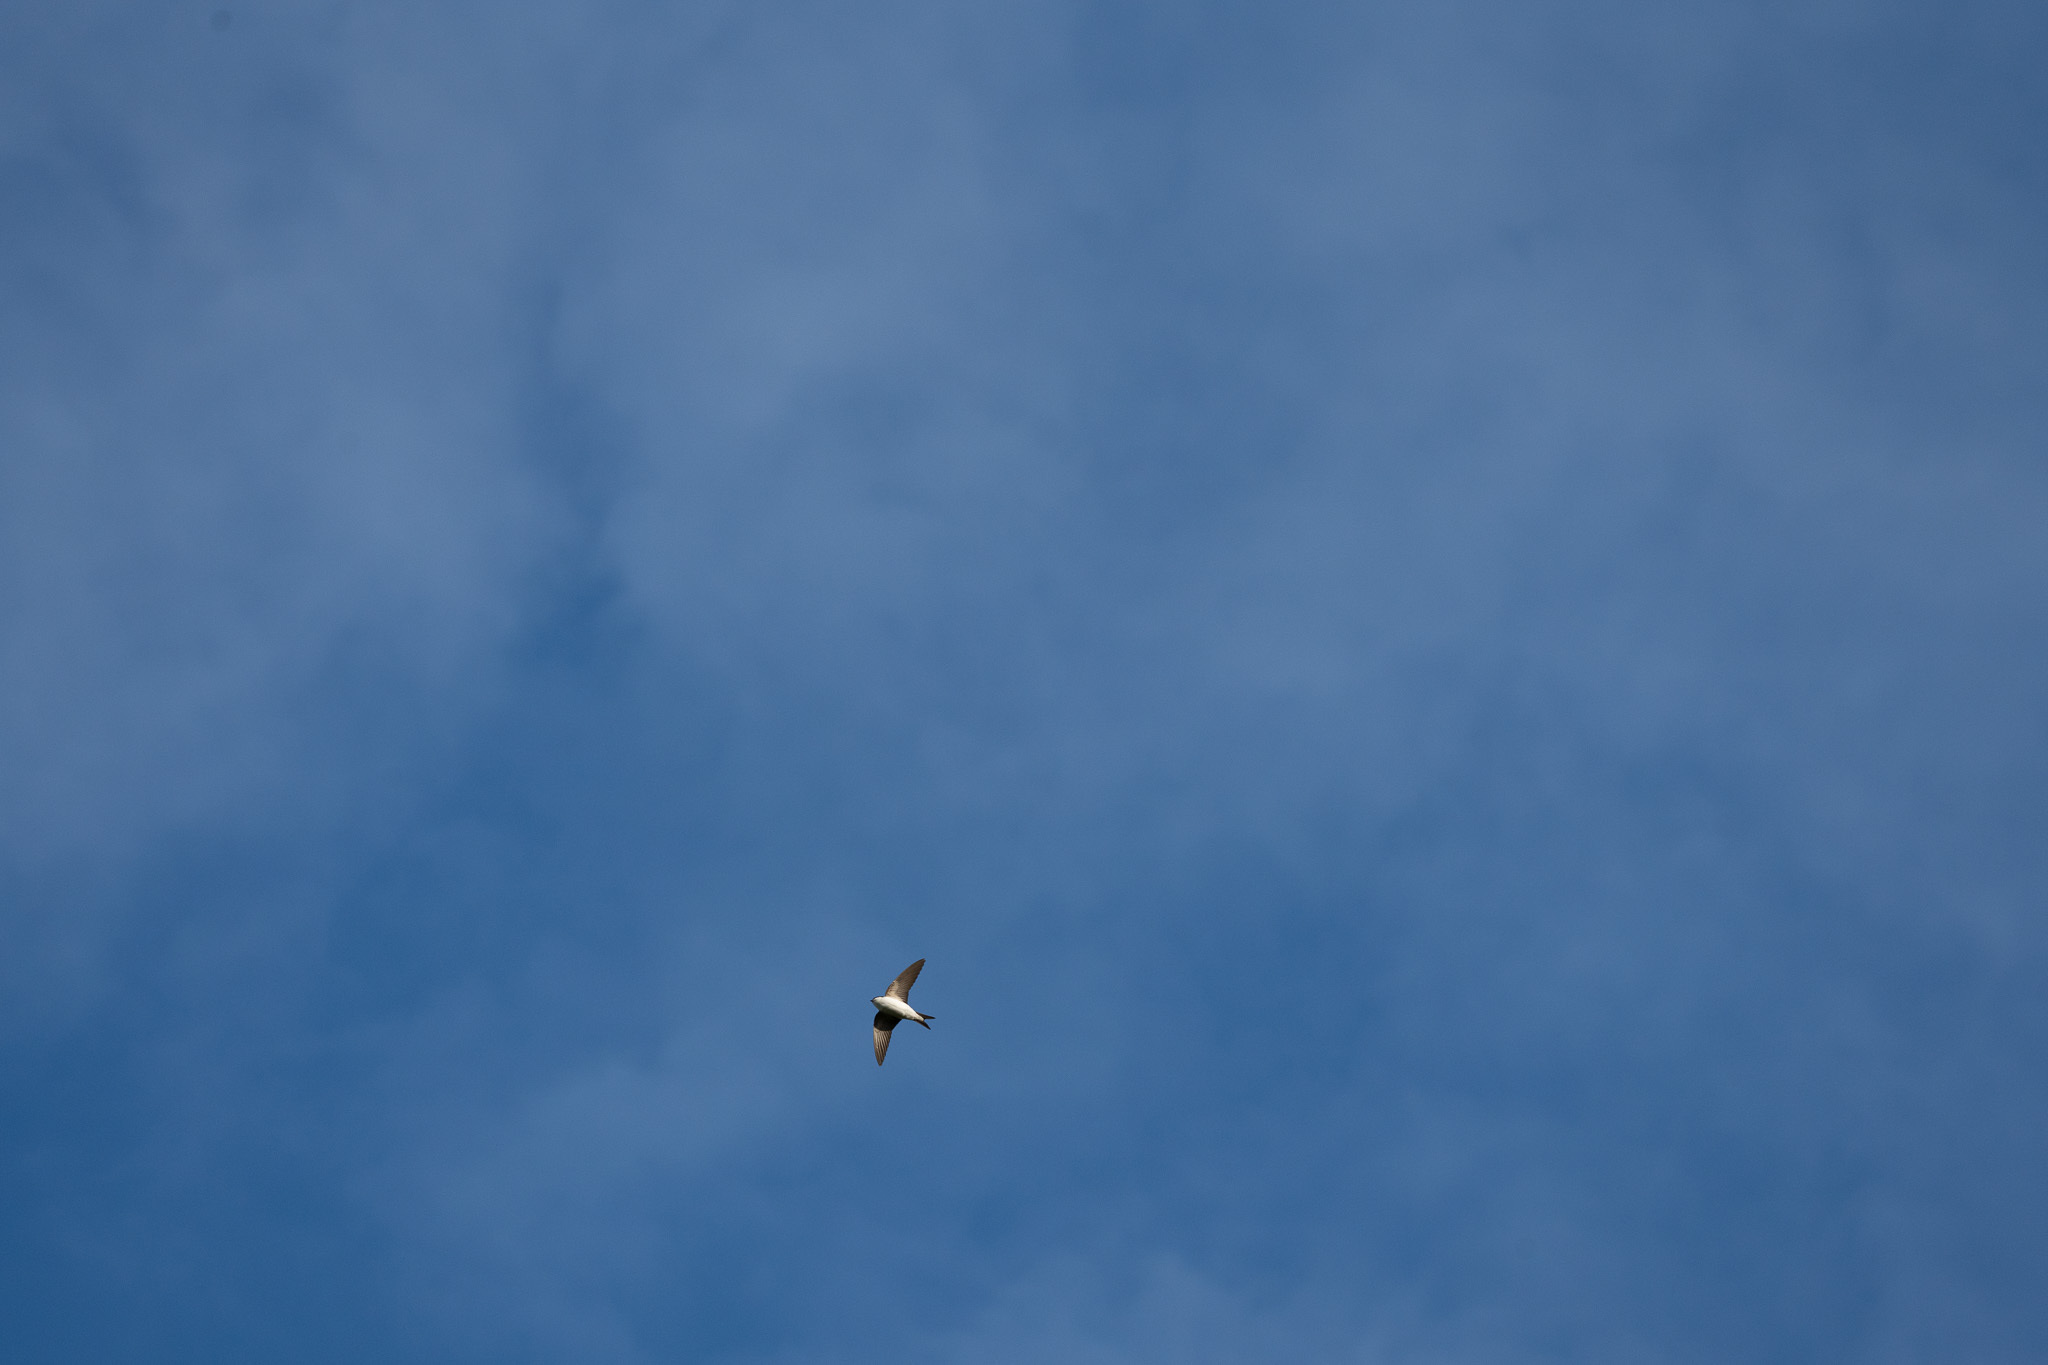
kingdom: Animalia
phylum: Chordata
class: Aves
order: Passeriformes
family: Hirundinidae
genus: Delichon
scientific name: Delichon urbicum
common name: Common house martin
